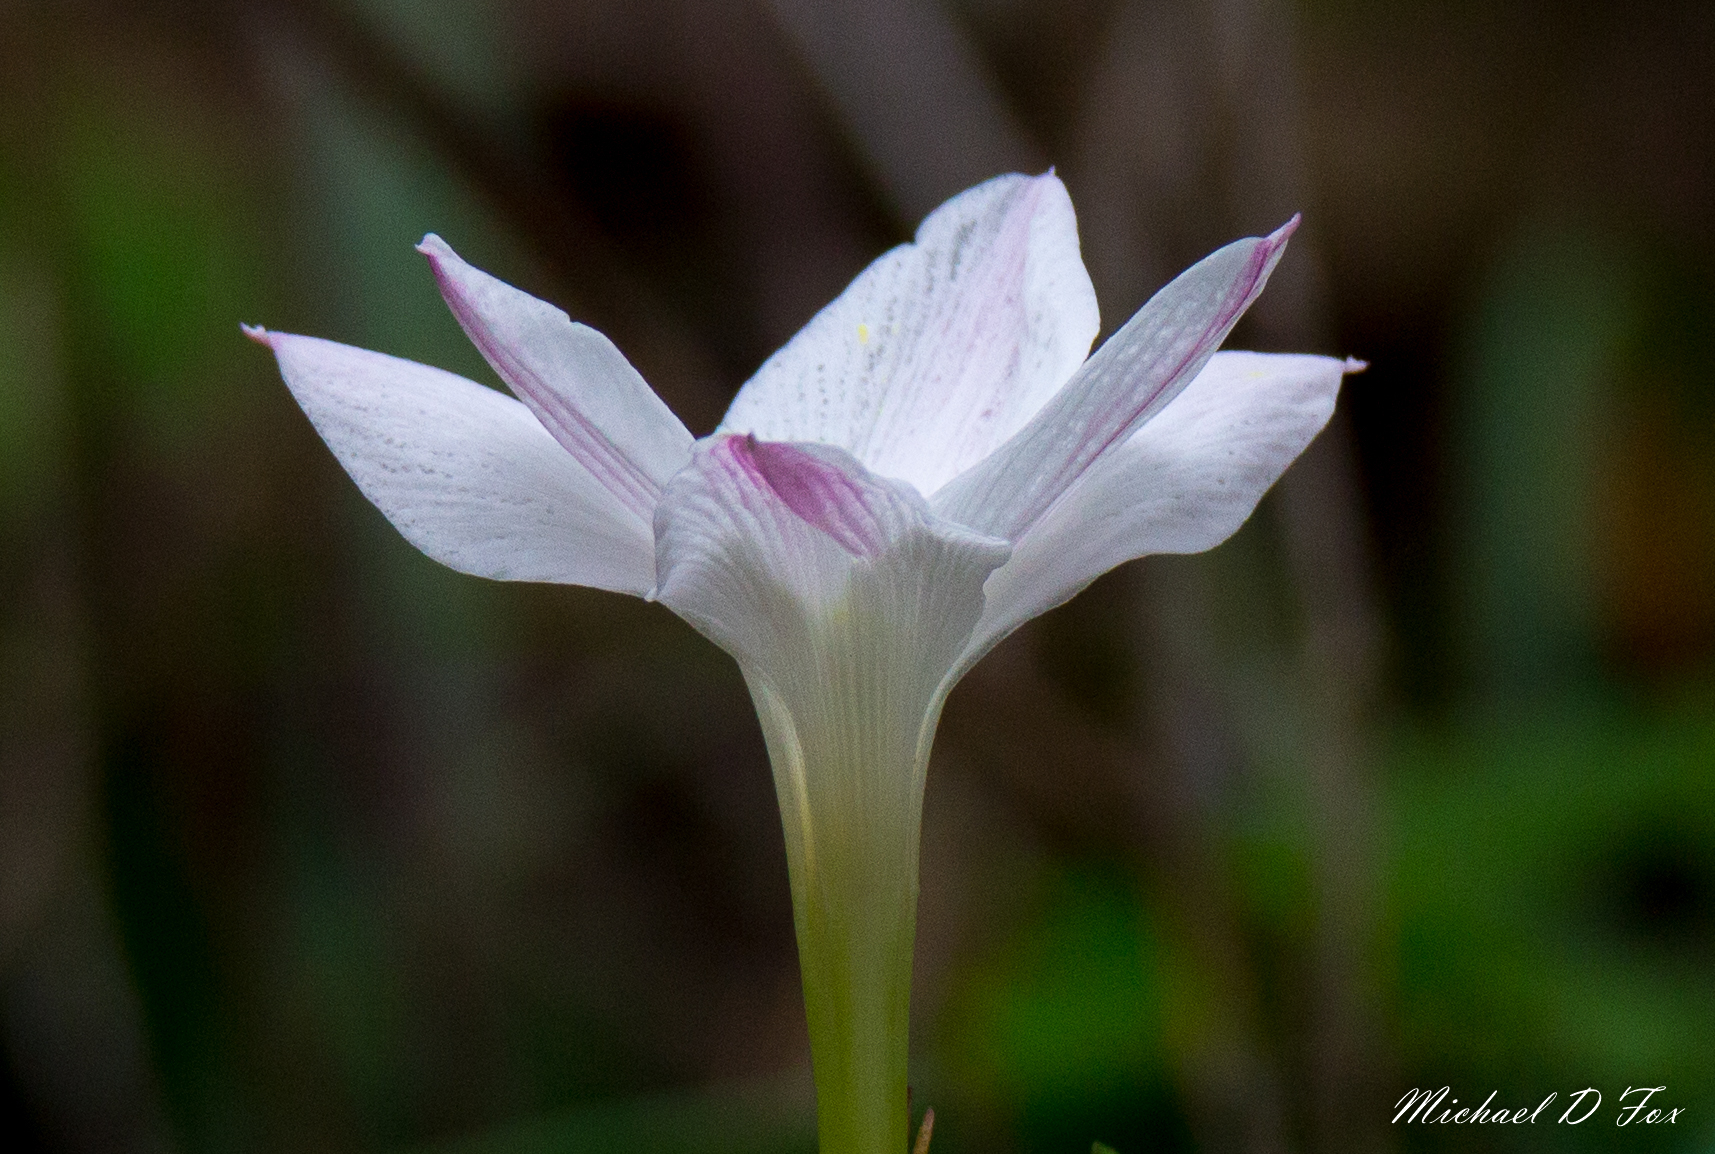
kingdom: Plantae
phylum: Tracheophyta
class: Liliopsida
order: Asparagales
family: Amaryllidaceae
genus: Zephyranthes
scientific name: Zephyranthes drummondii
